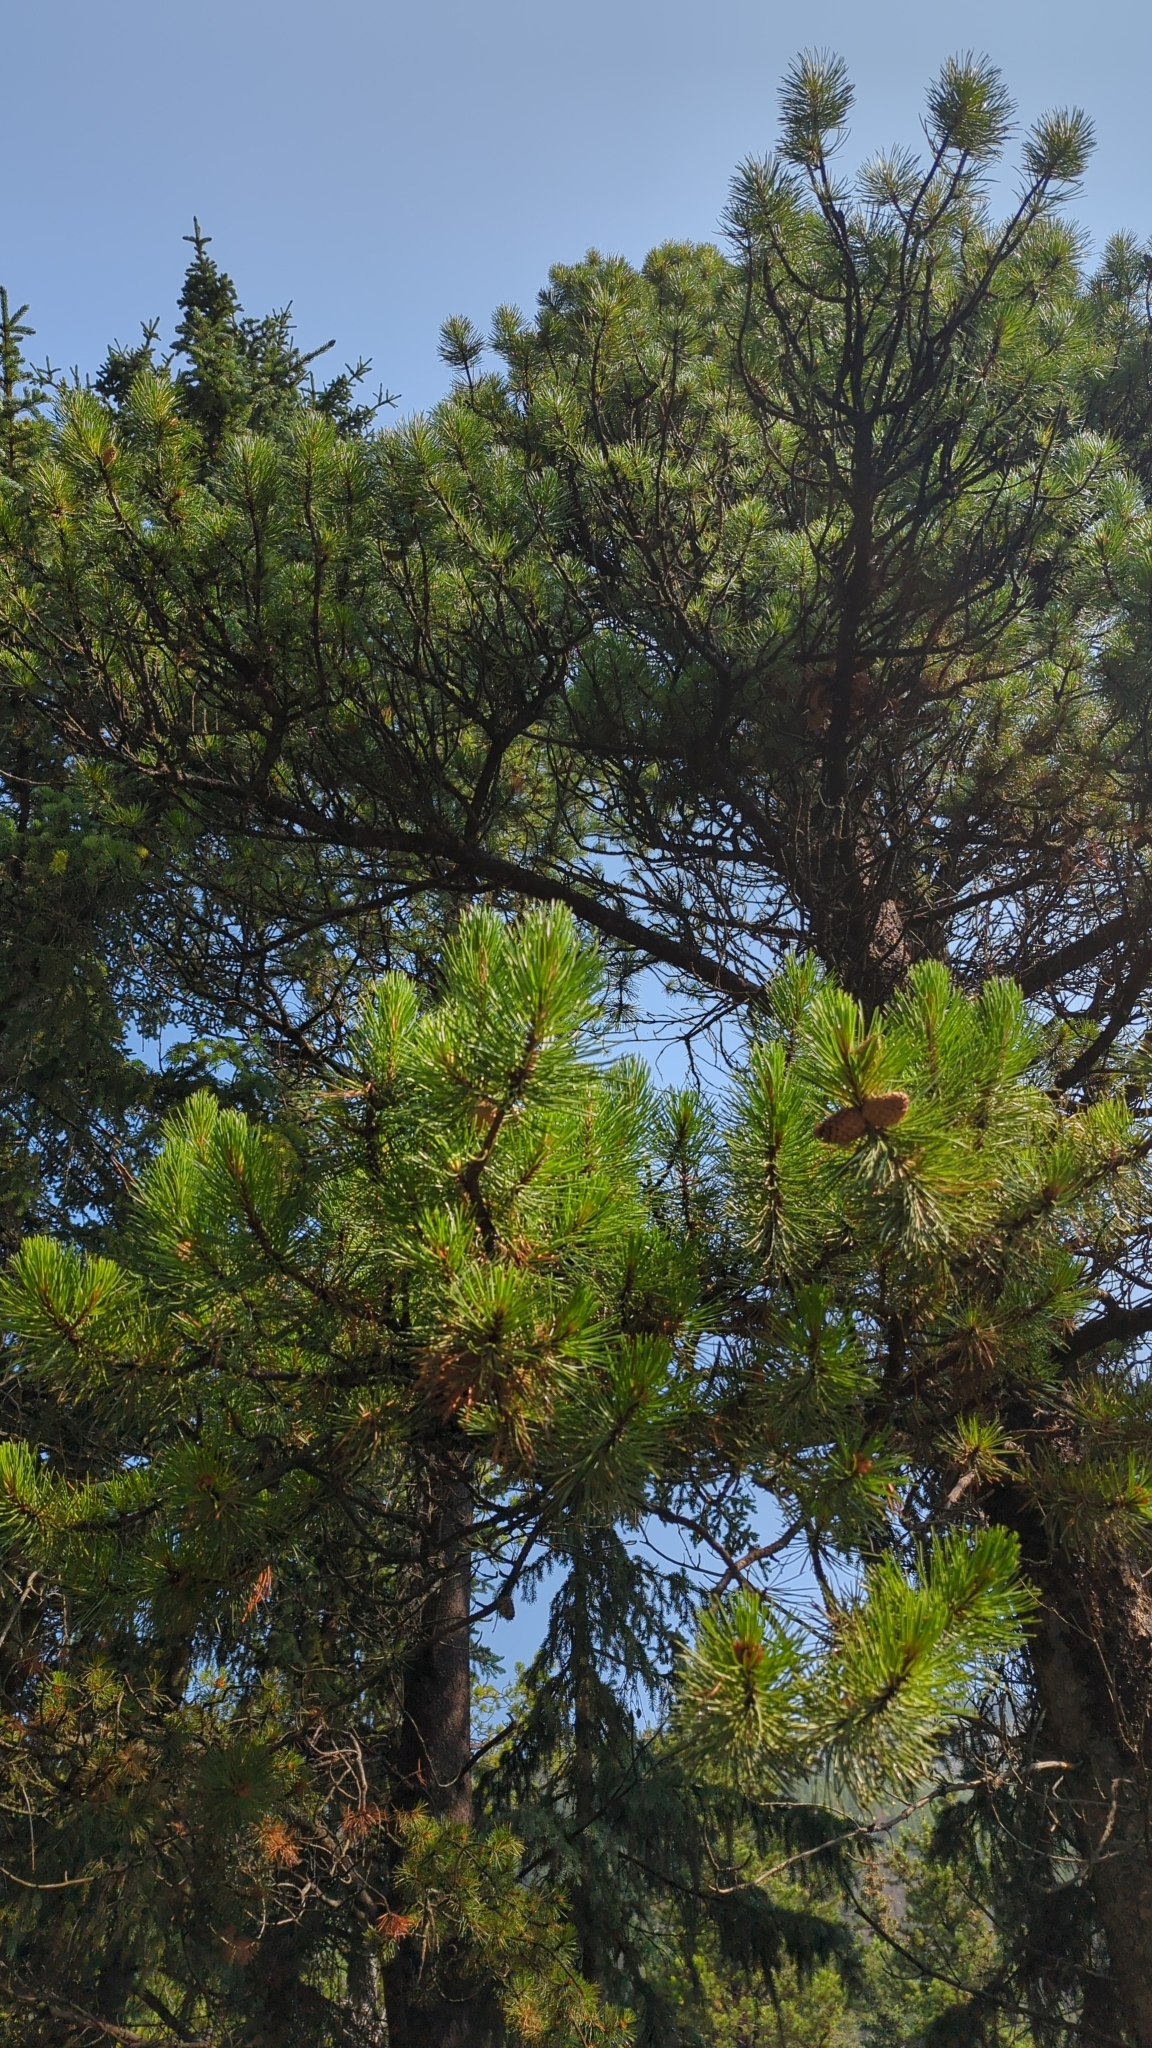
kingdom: Plantae
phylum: Tracheophyta
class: Pinopsida
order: Pinales
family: Pinaceae
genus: Pinus
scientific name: Pinus contorta
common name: Lodgepole pine
